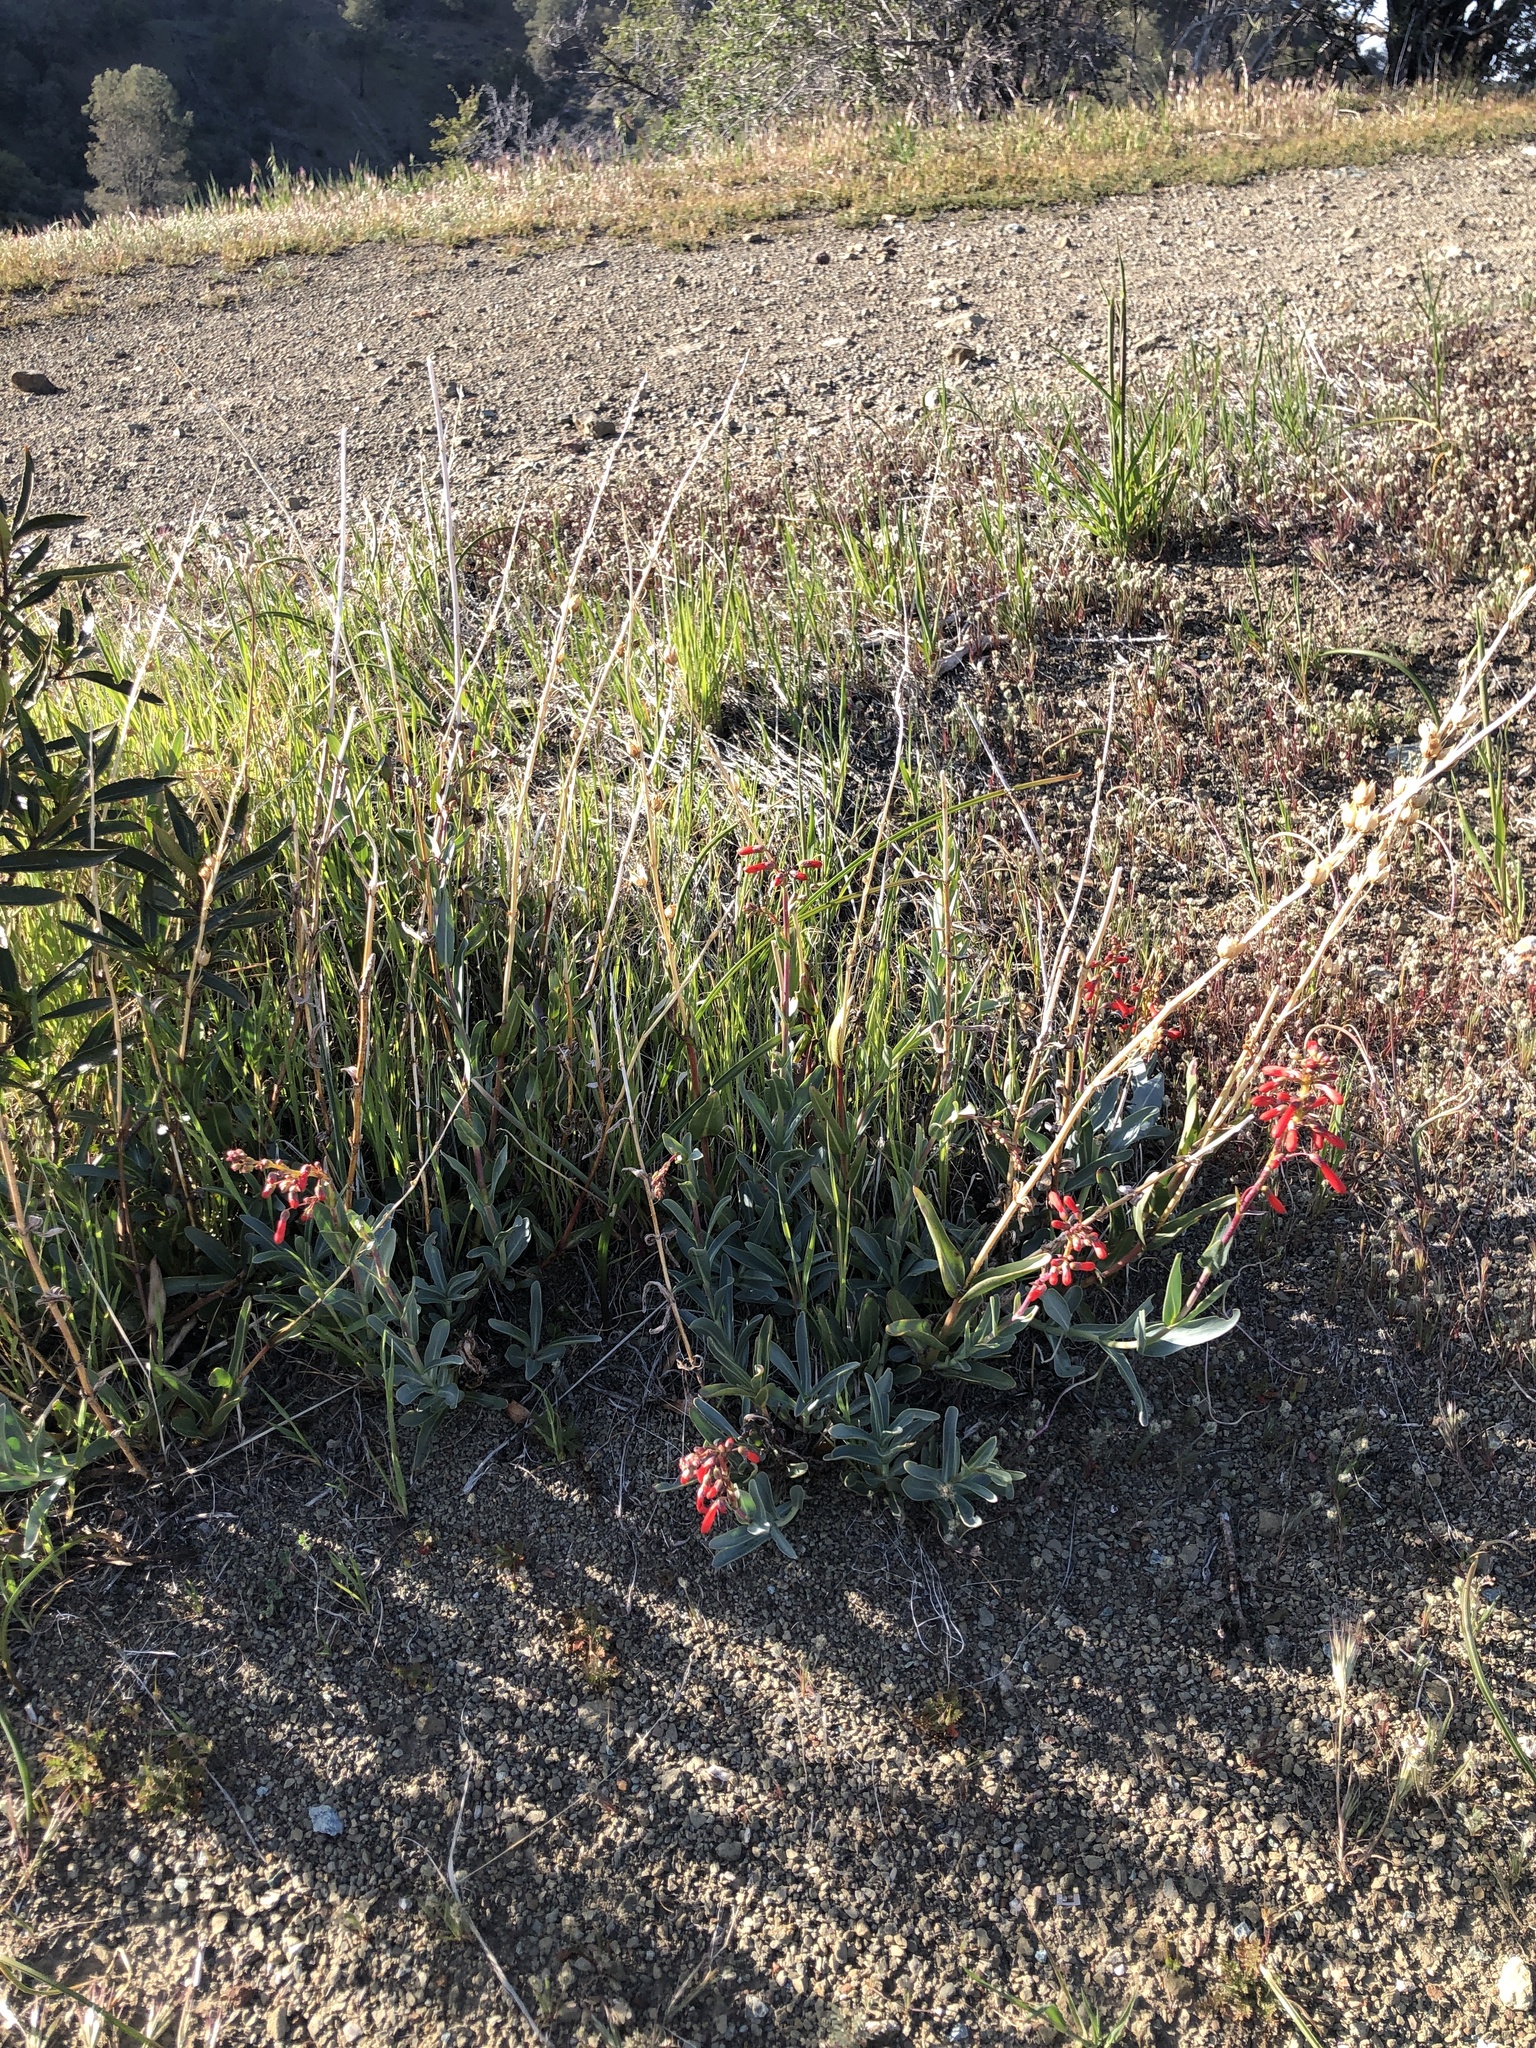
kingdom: Plantae
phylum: Tracheophyta
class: Magnoliopsida
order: Lamiales
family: Plantaginaceae
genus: Penstemon
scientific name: Penstemon centranthifolius
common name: Scarlet bugler
